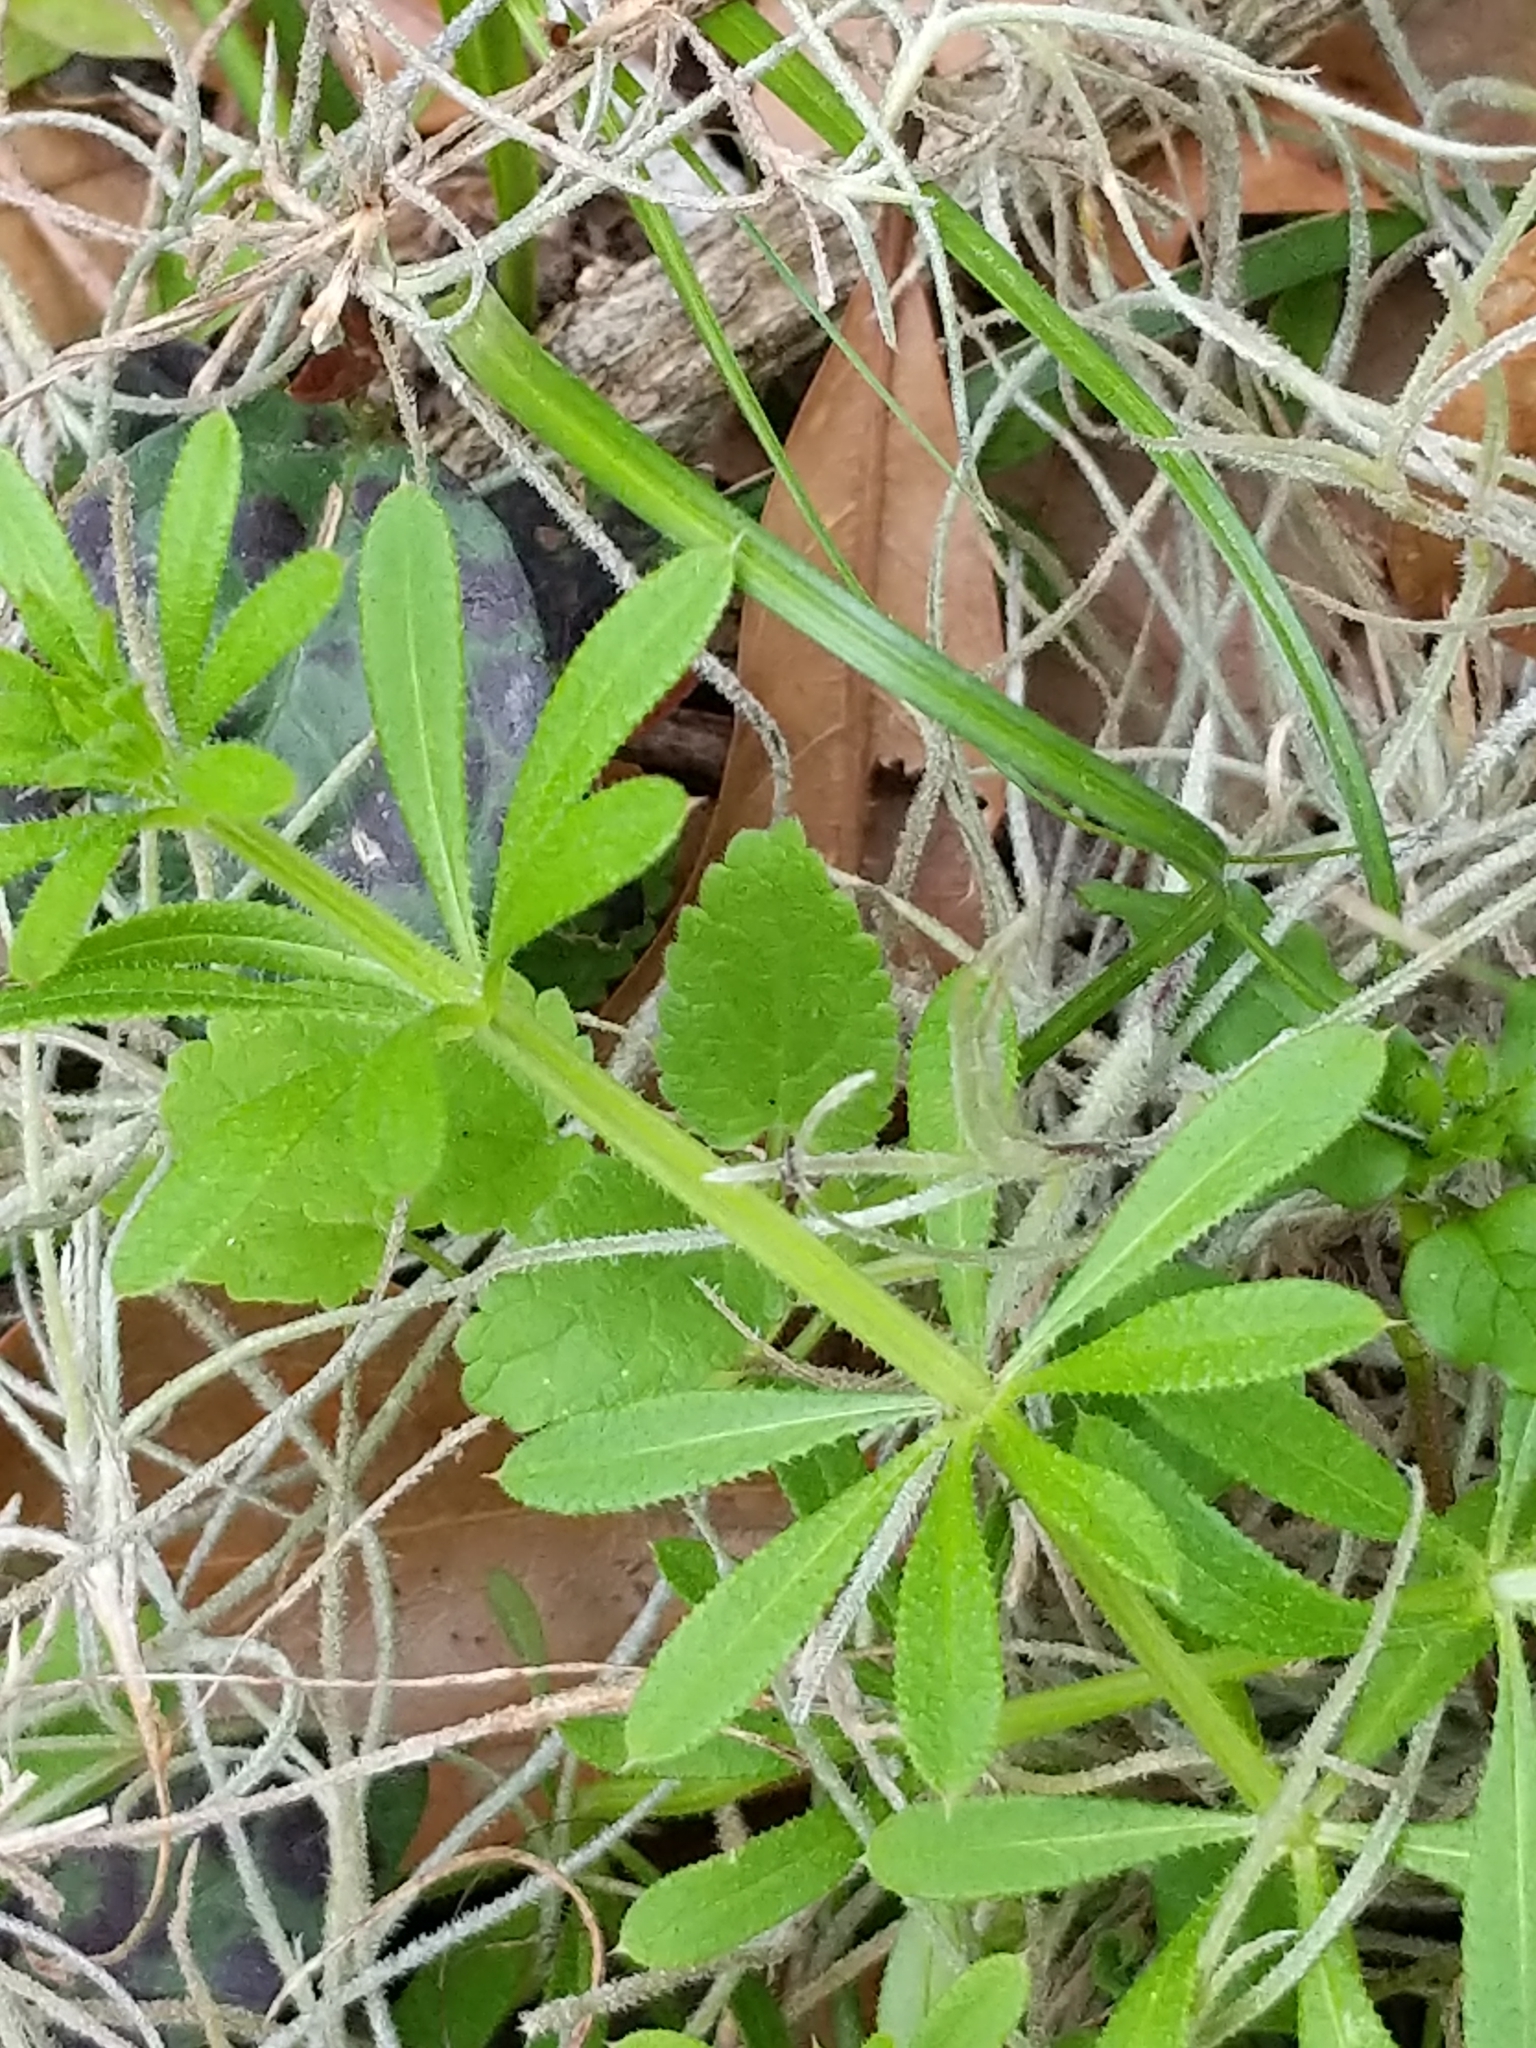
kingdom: Plantae
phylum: Tracheophyta
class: Magnoliopsida
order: Gentianales
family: Rubiaceae
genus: Galium
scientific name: Galium aparine
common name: Cleavers
